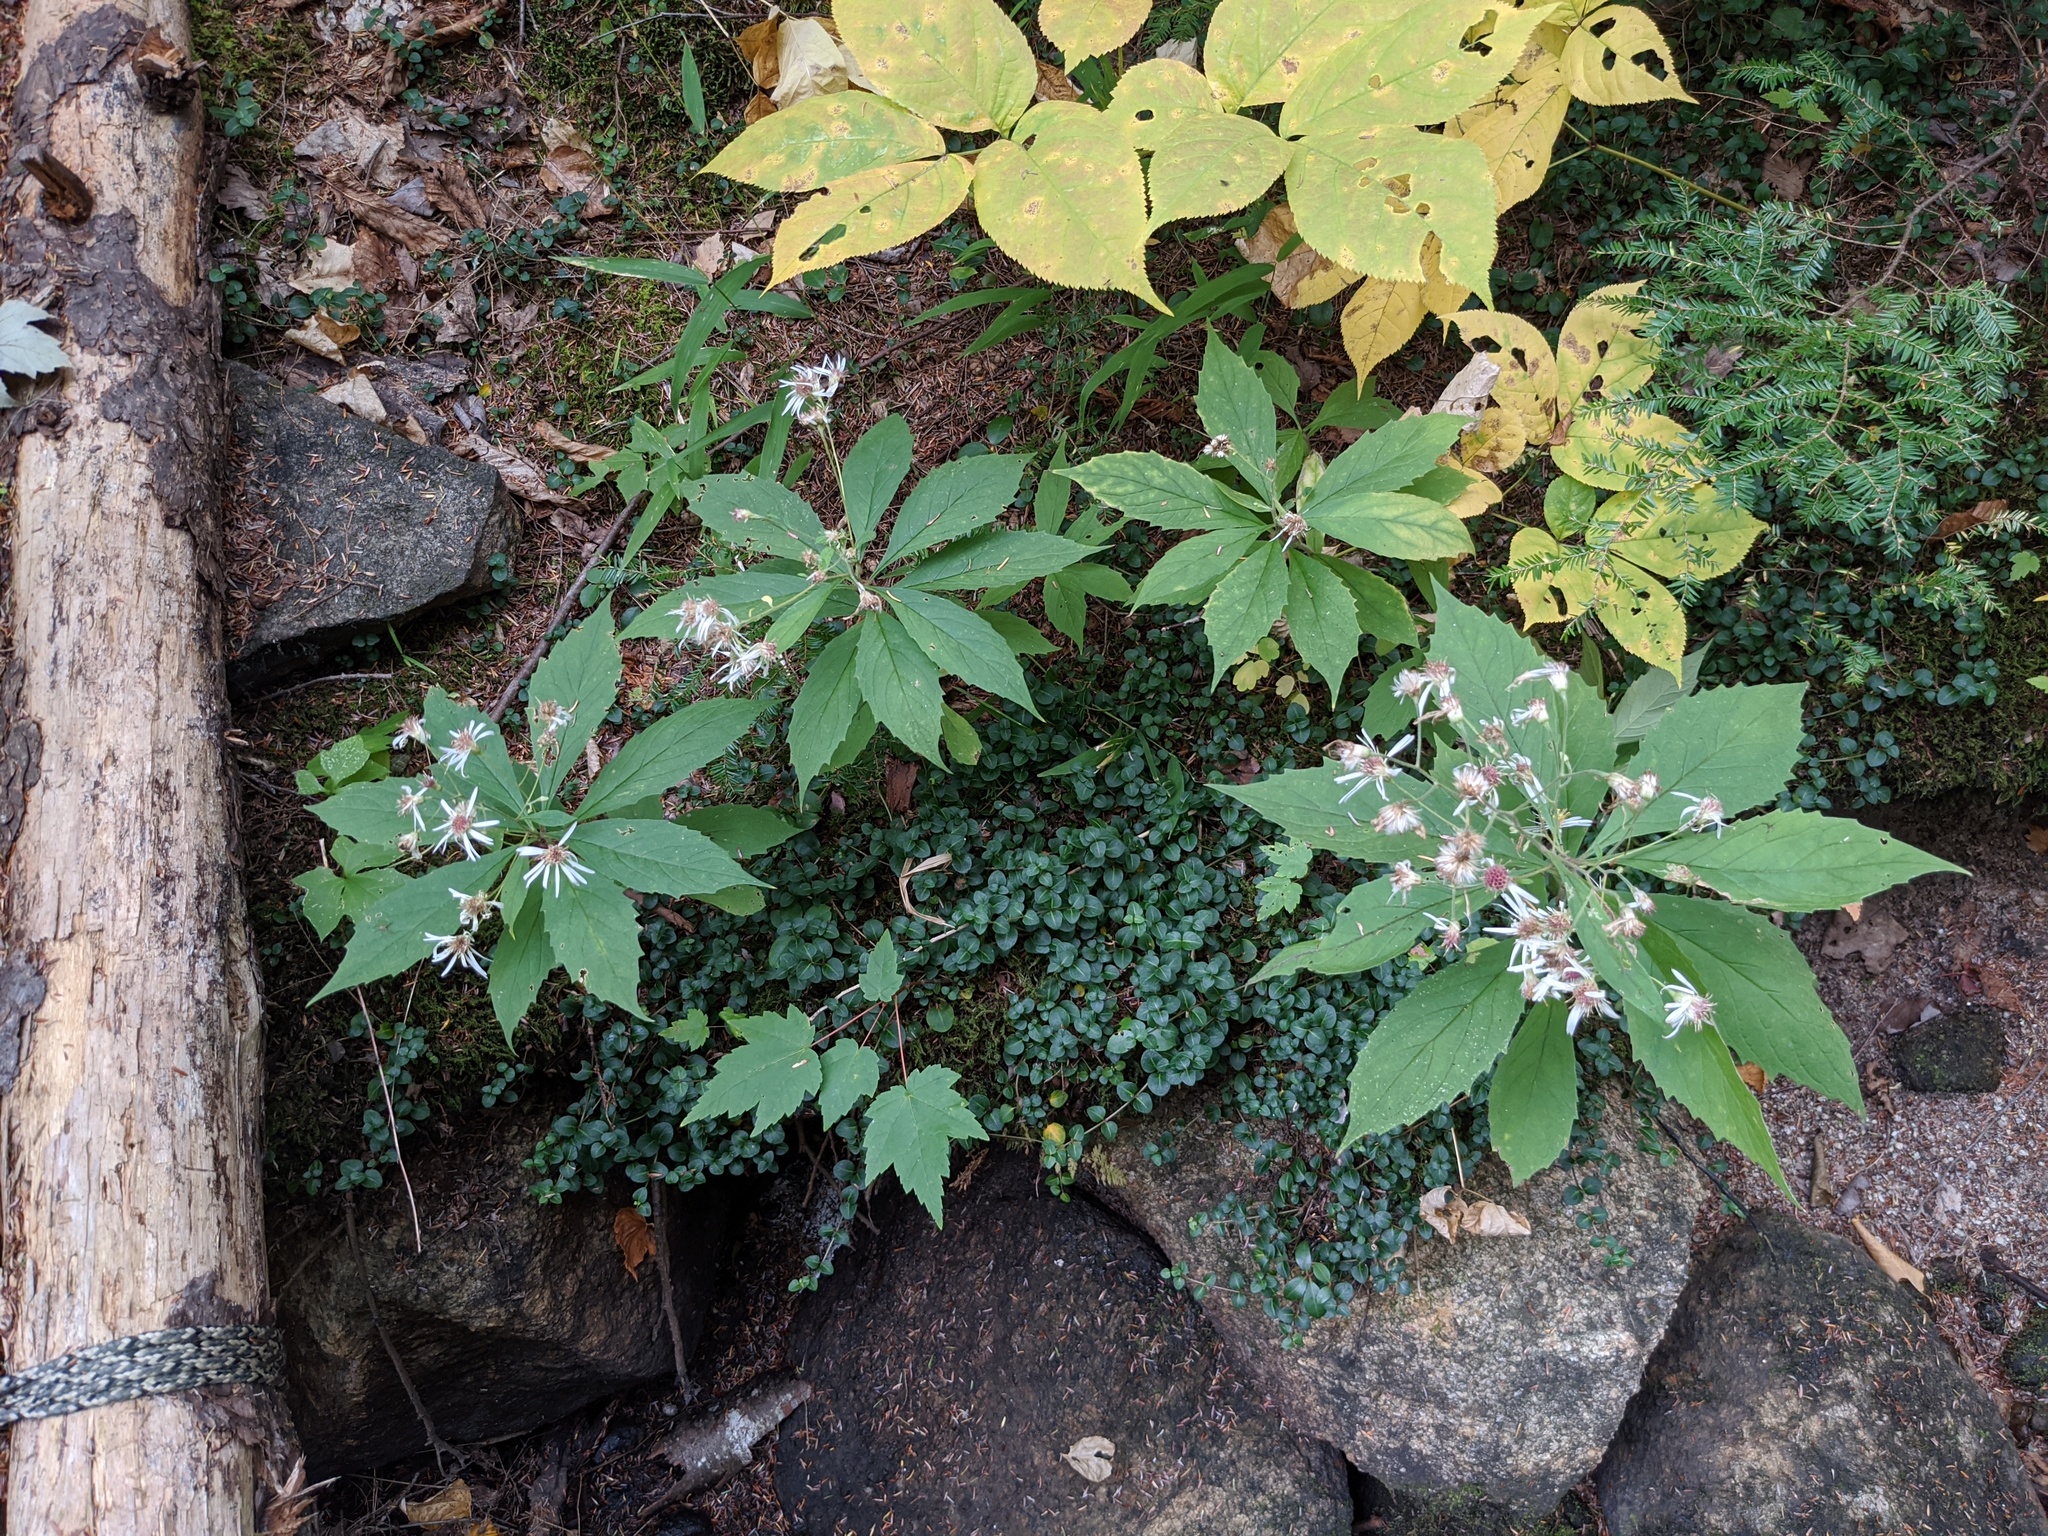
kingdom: Plantae
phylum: Tracheophyta
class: Magnoliopsida
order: Asterales
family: Asteraceae
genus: Oclemena
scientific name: Oclemena acuminata
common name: Mountain aster
